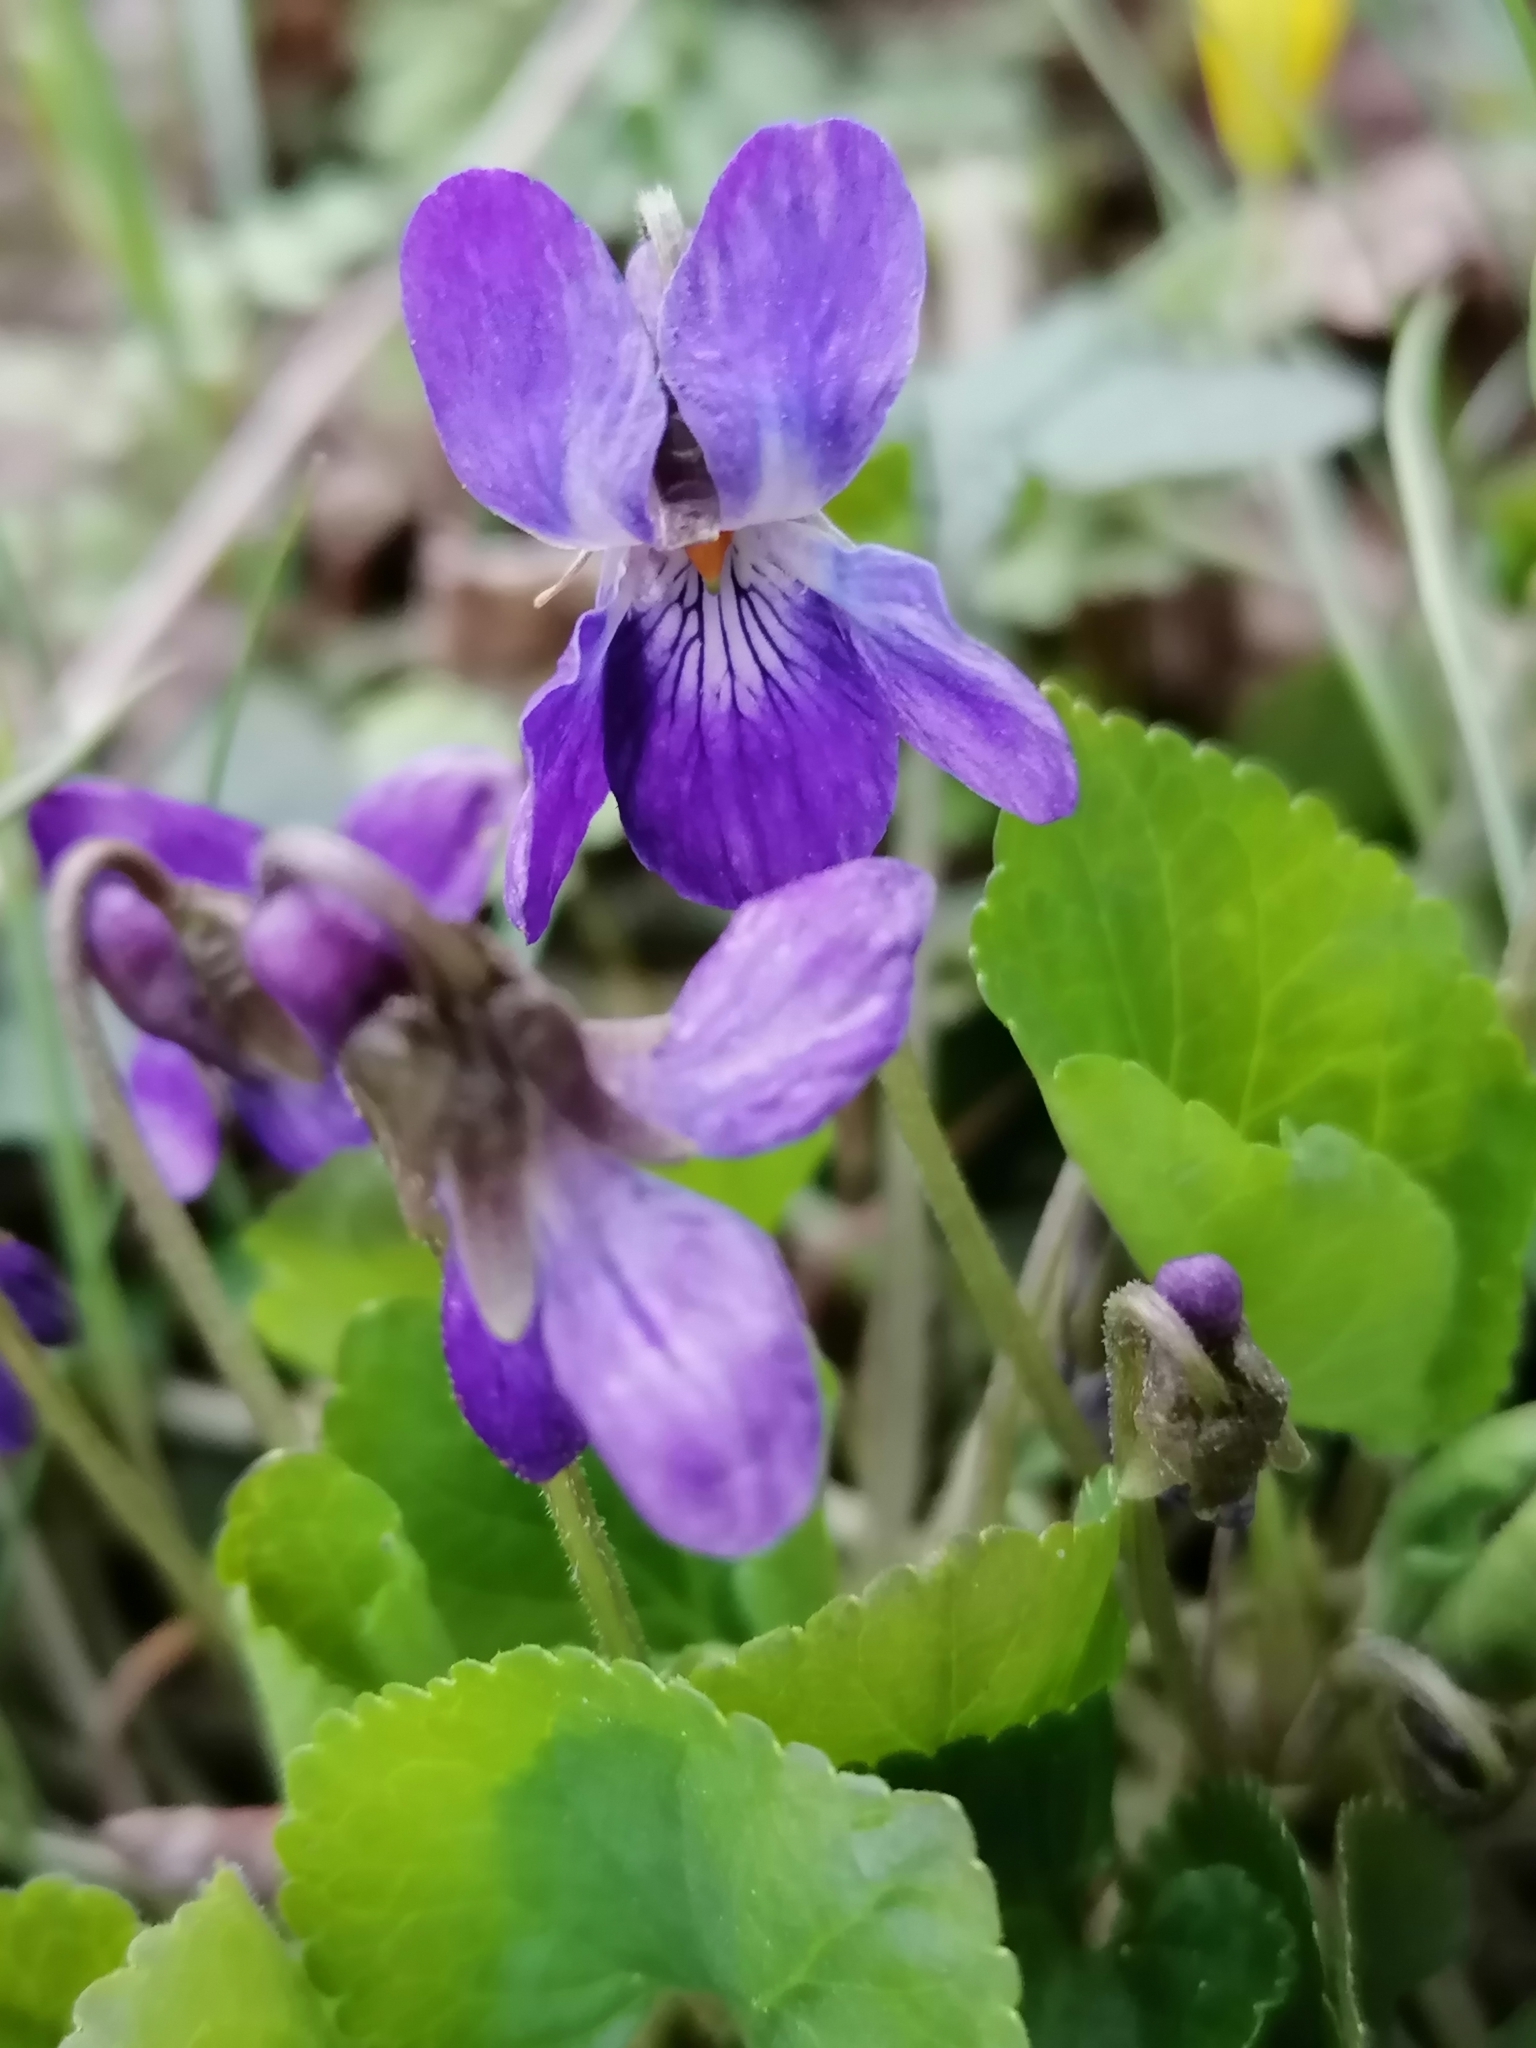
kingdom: Plantae
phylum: Tracheophyta
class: Magnoliopsida
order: Malpighiales
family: Violaceae
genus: Viola
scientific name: Viola odorata
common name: Sweet violet
